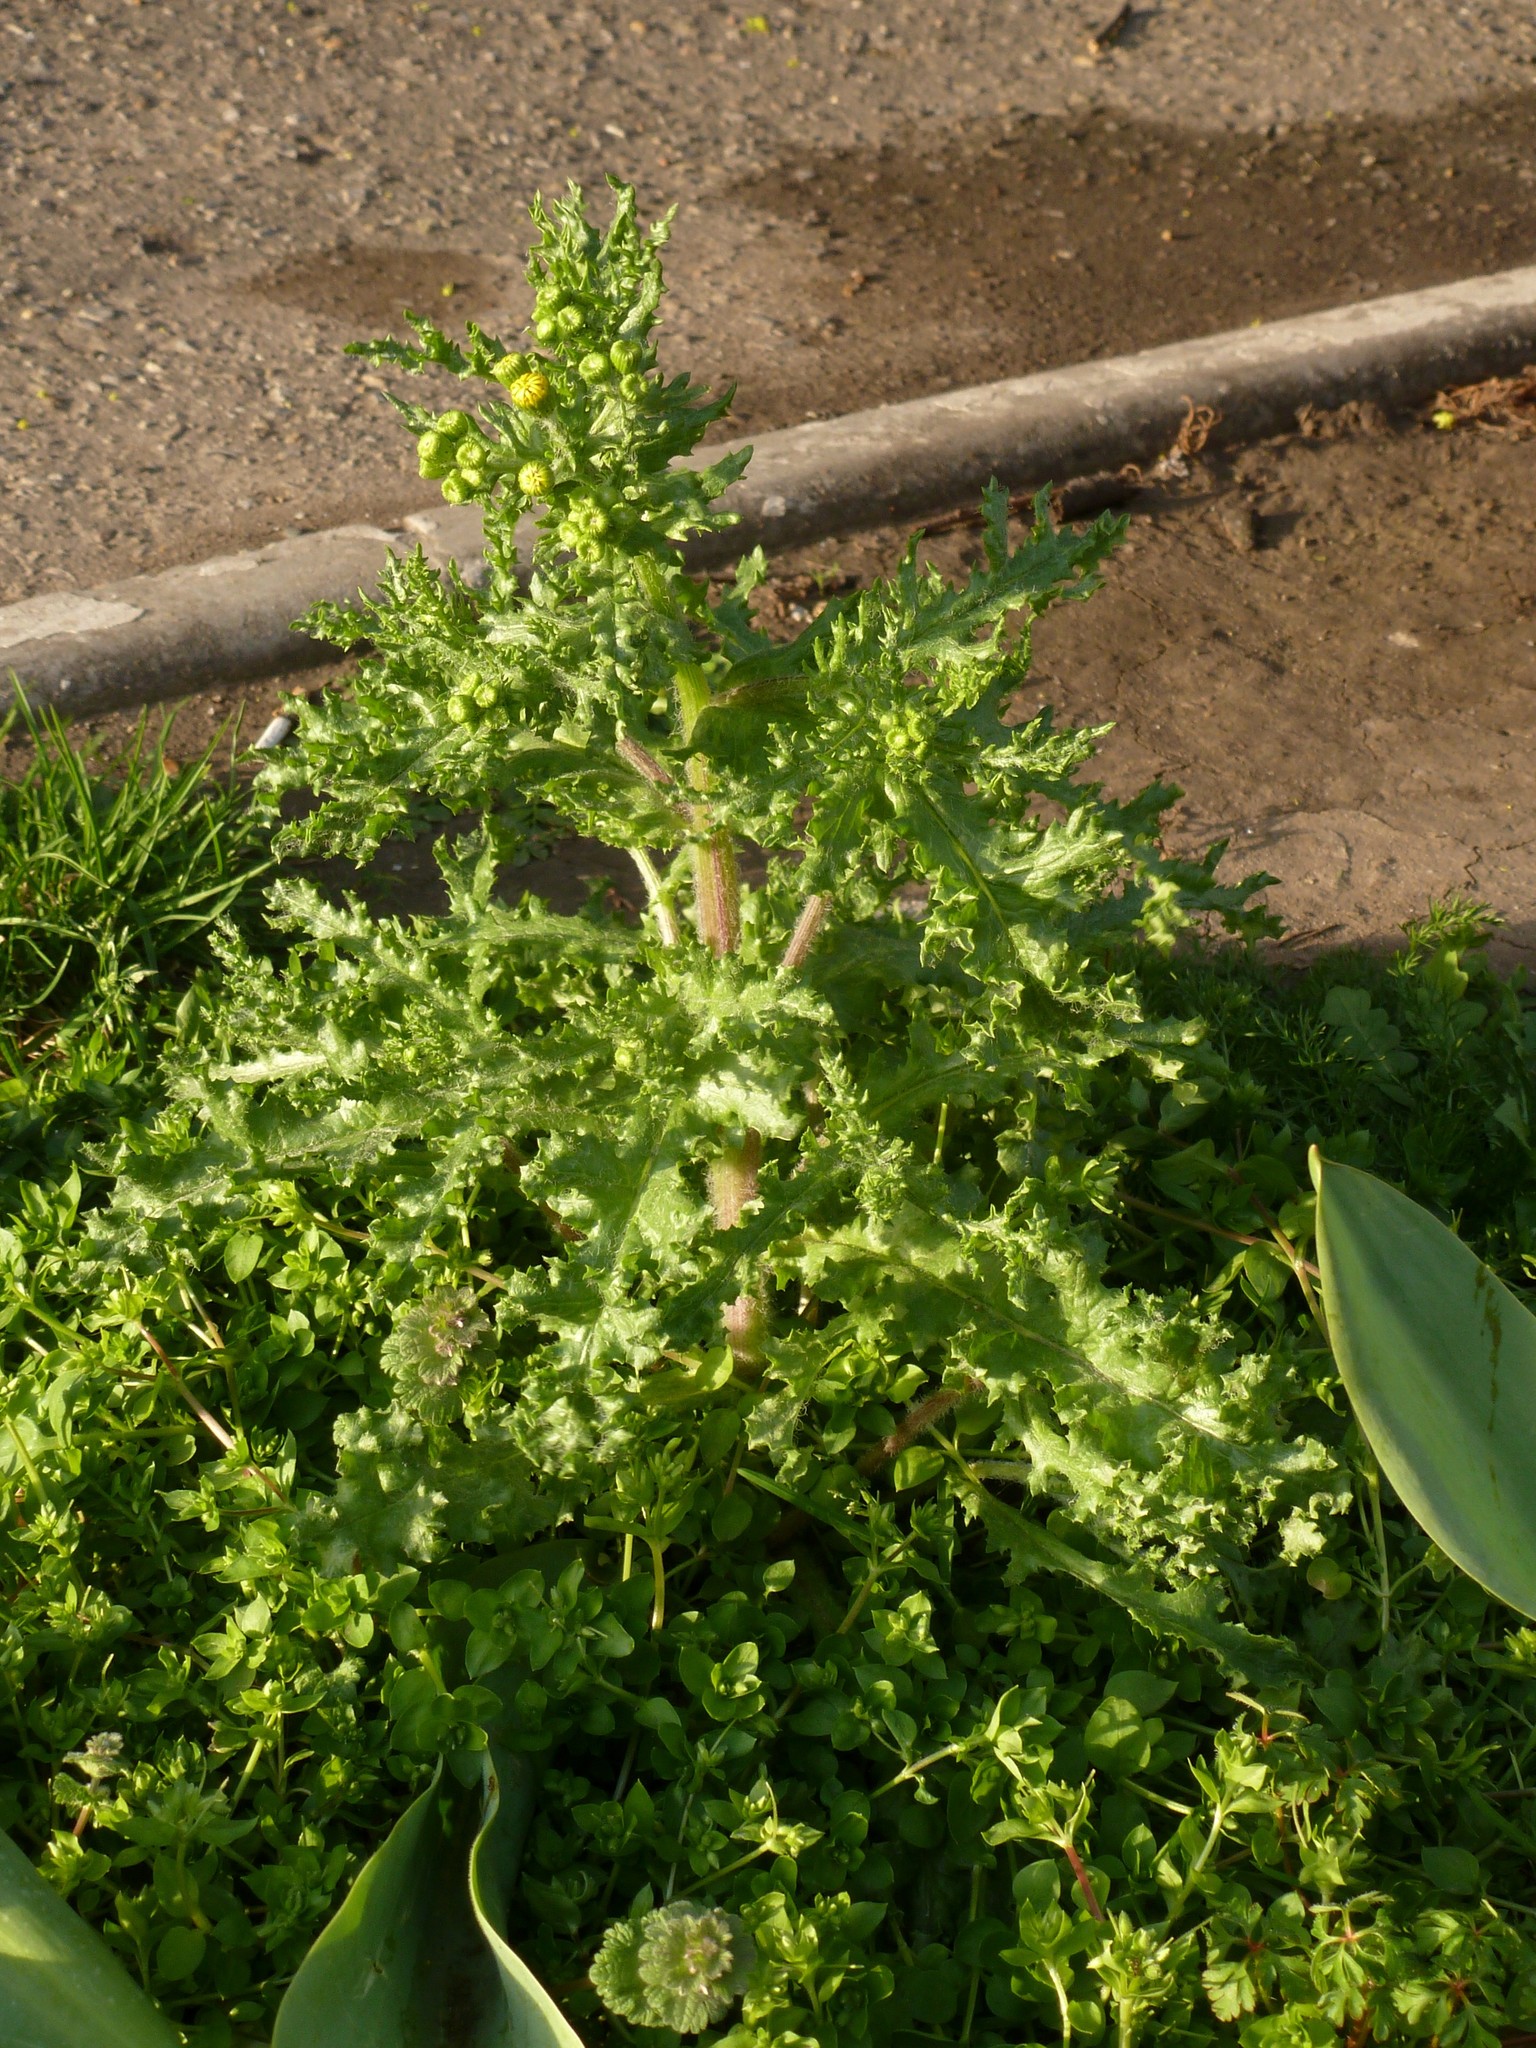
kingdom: Plantae
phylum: Tracheophyta
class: Magnoliopsida
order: Asterales
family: Asteraceae
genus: Senecio
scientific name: Senecio vernalis
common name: Eastern groundsel
